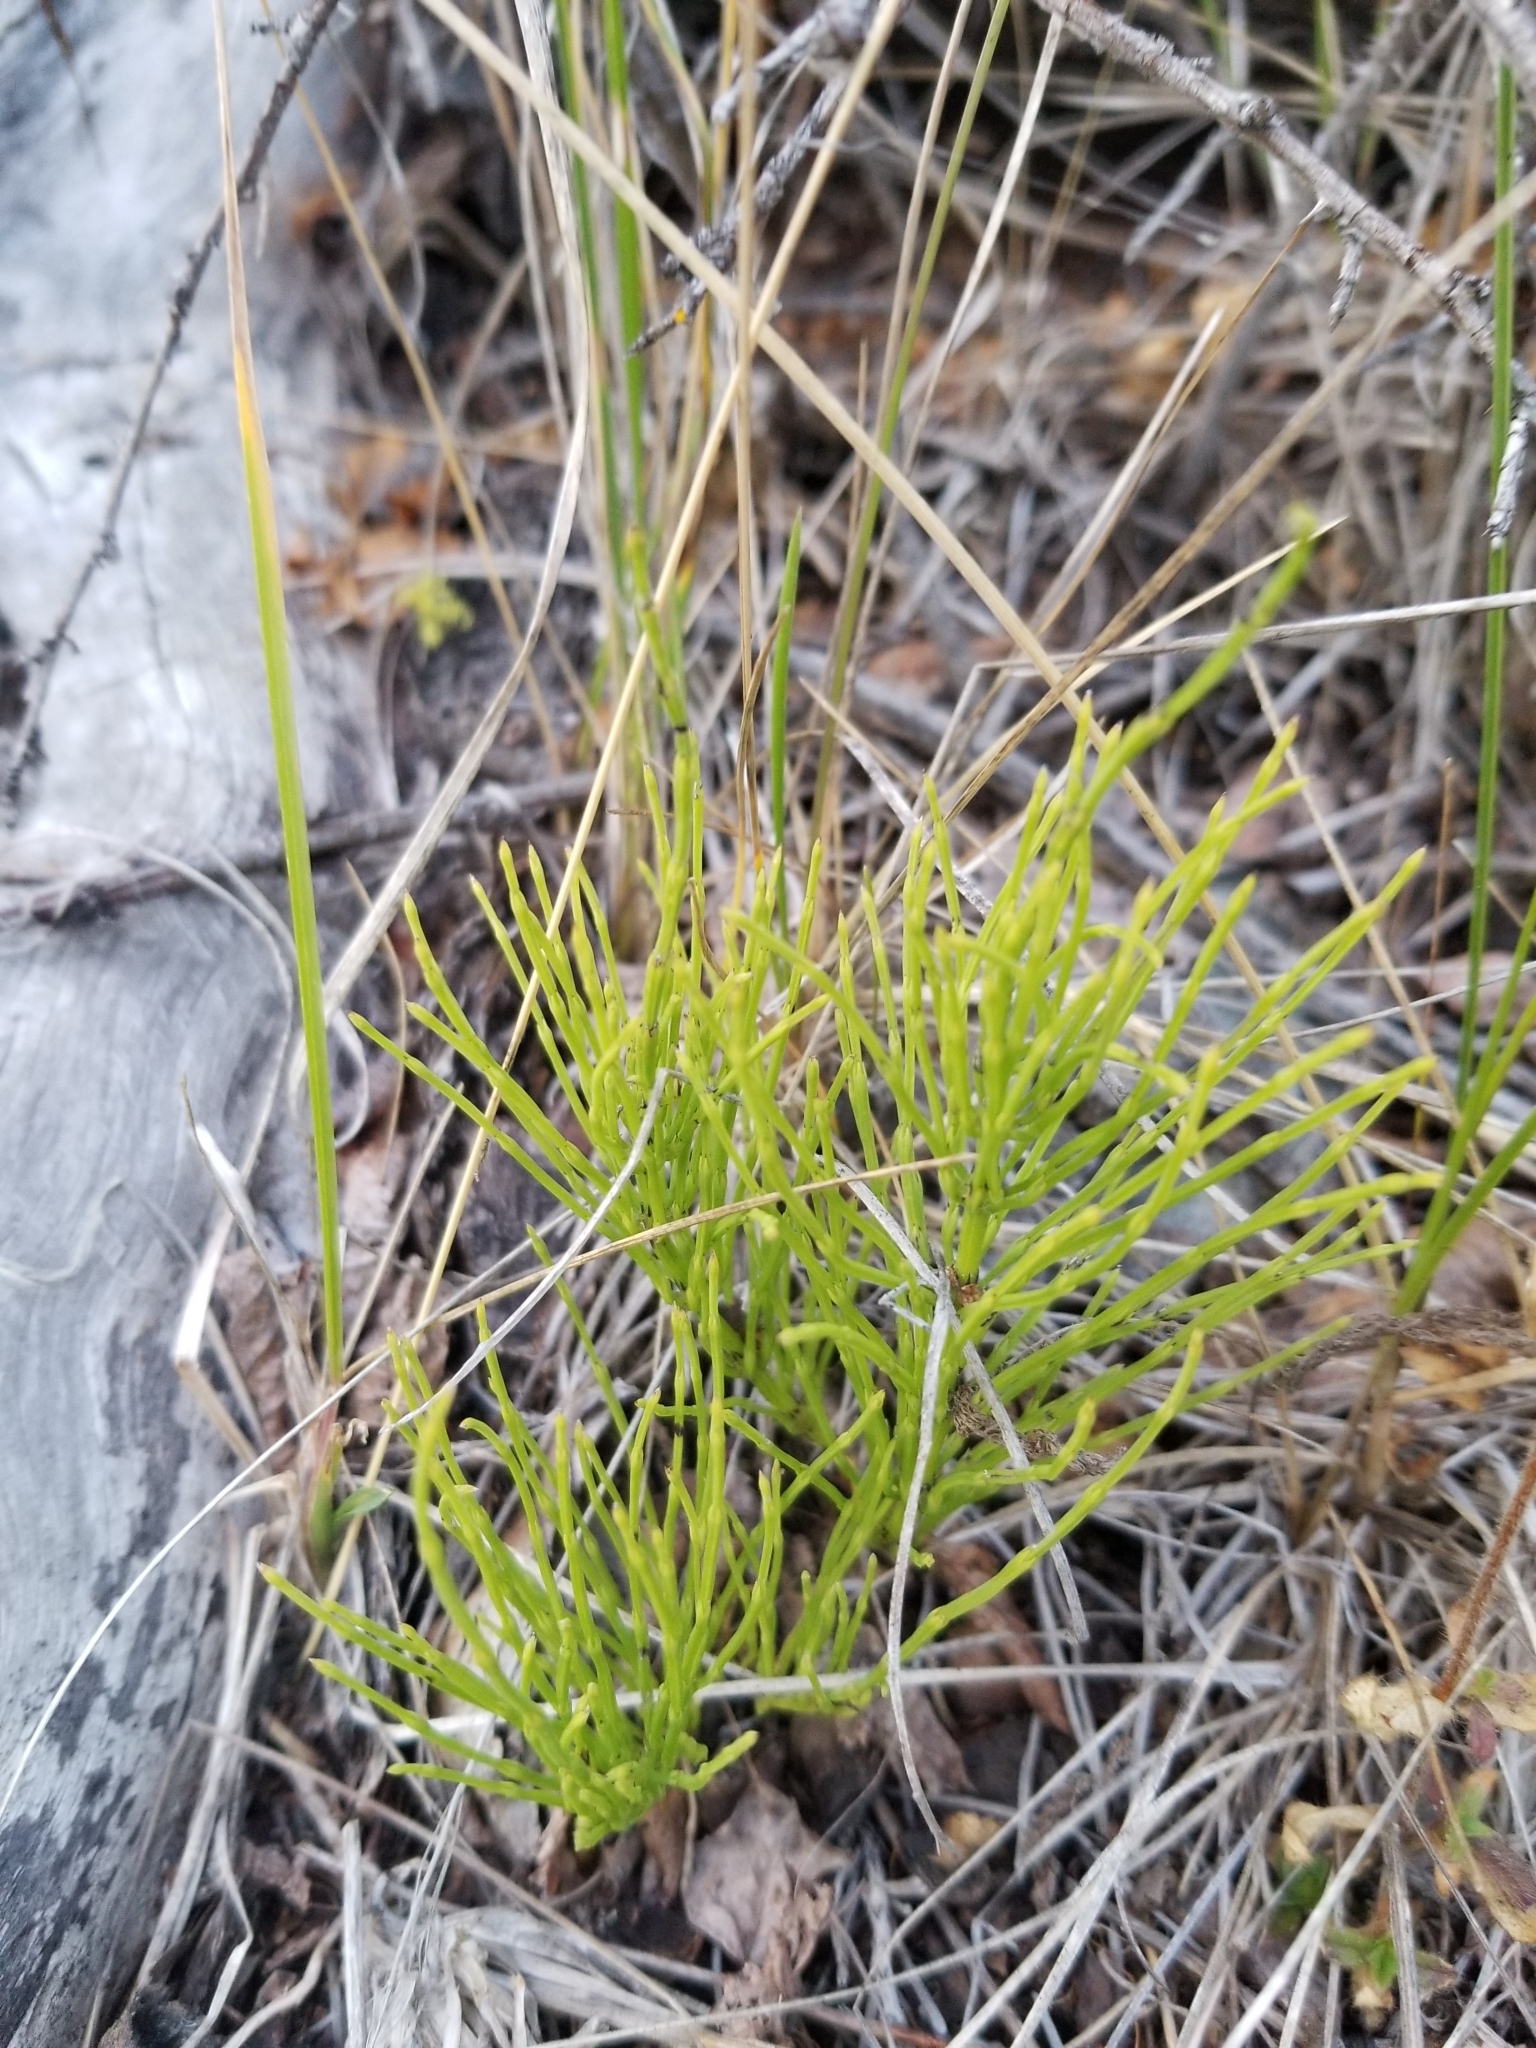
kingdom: Plantae
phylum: Tracheophyta
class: Polypodiopsida
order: Equisetales
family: Equisetaceae
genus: Equisetum
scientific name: Equisetum arvense
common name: Field horsetail
